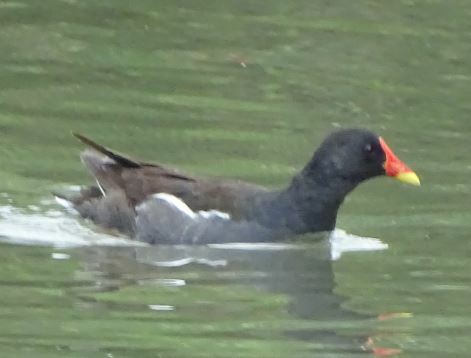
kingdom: Animalia
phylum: Chordata
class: Aves
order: Gruiformes
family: Rallidae
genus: Gallinula
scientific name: Gallinula chloropus
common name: Common moorhen
